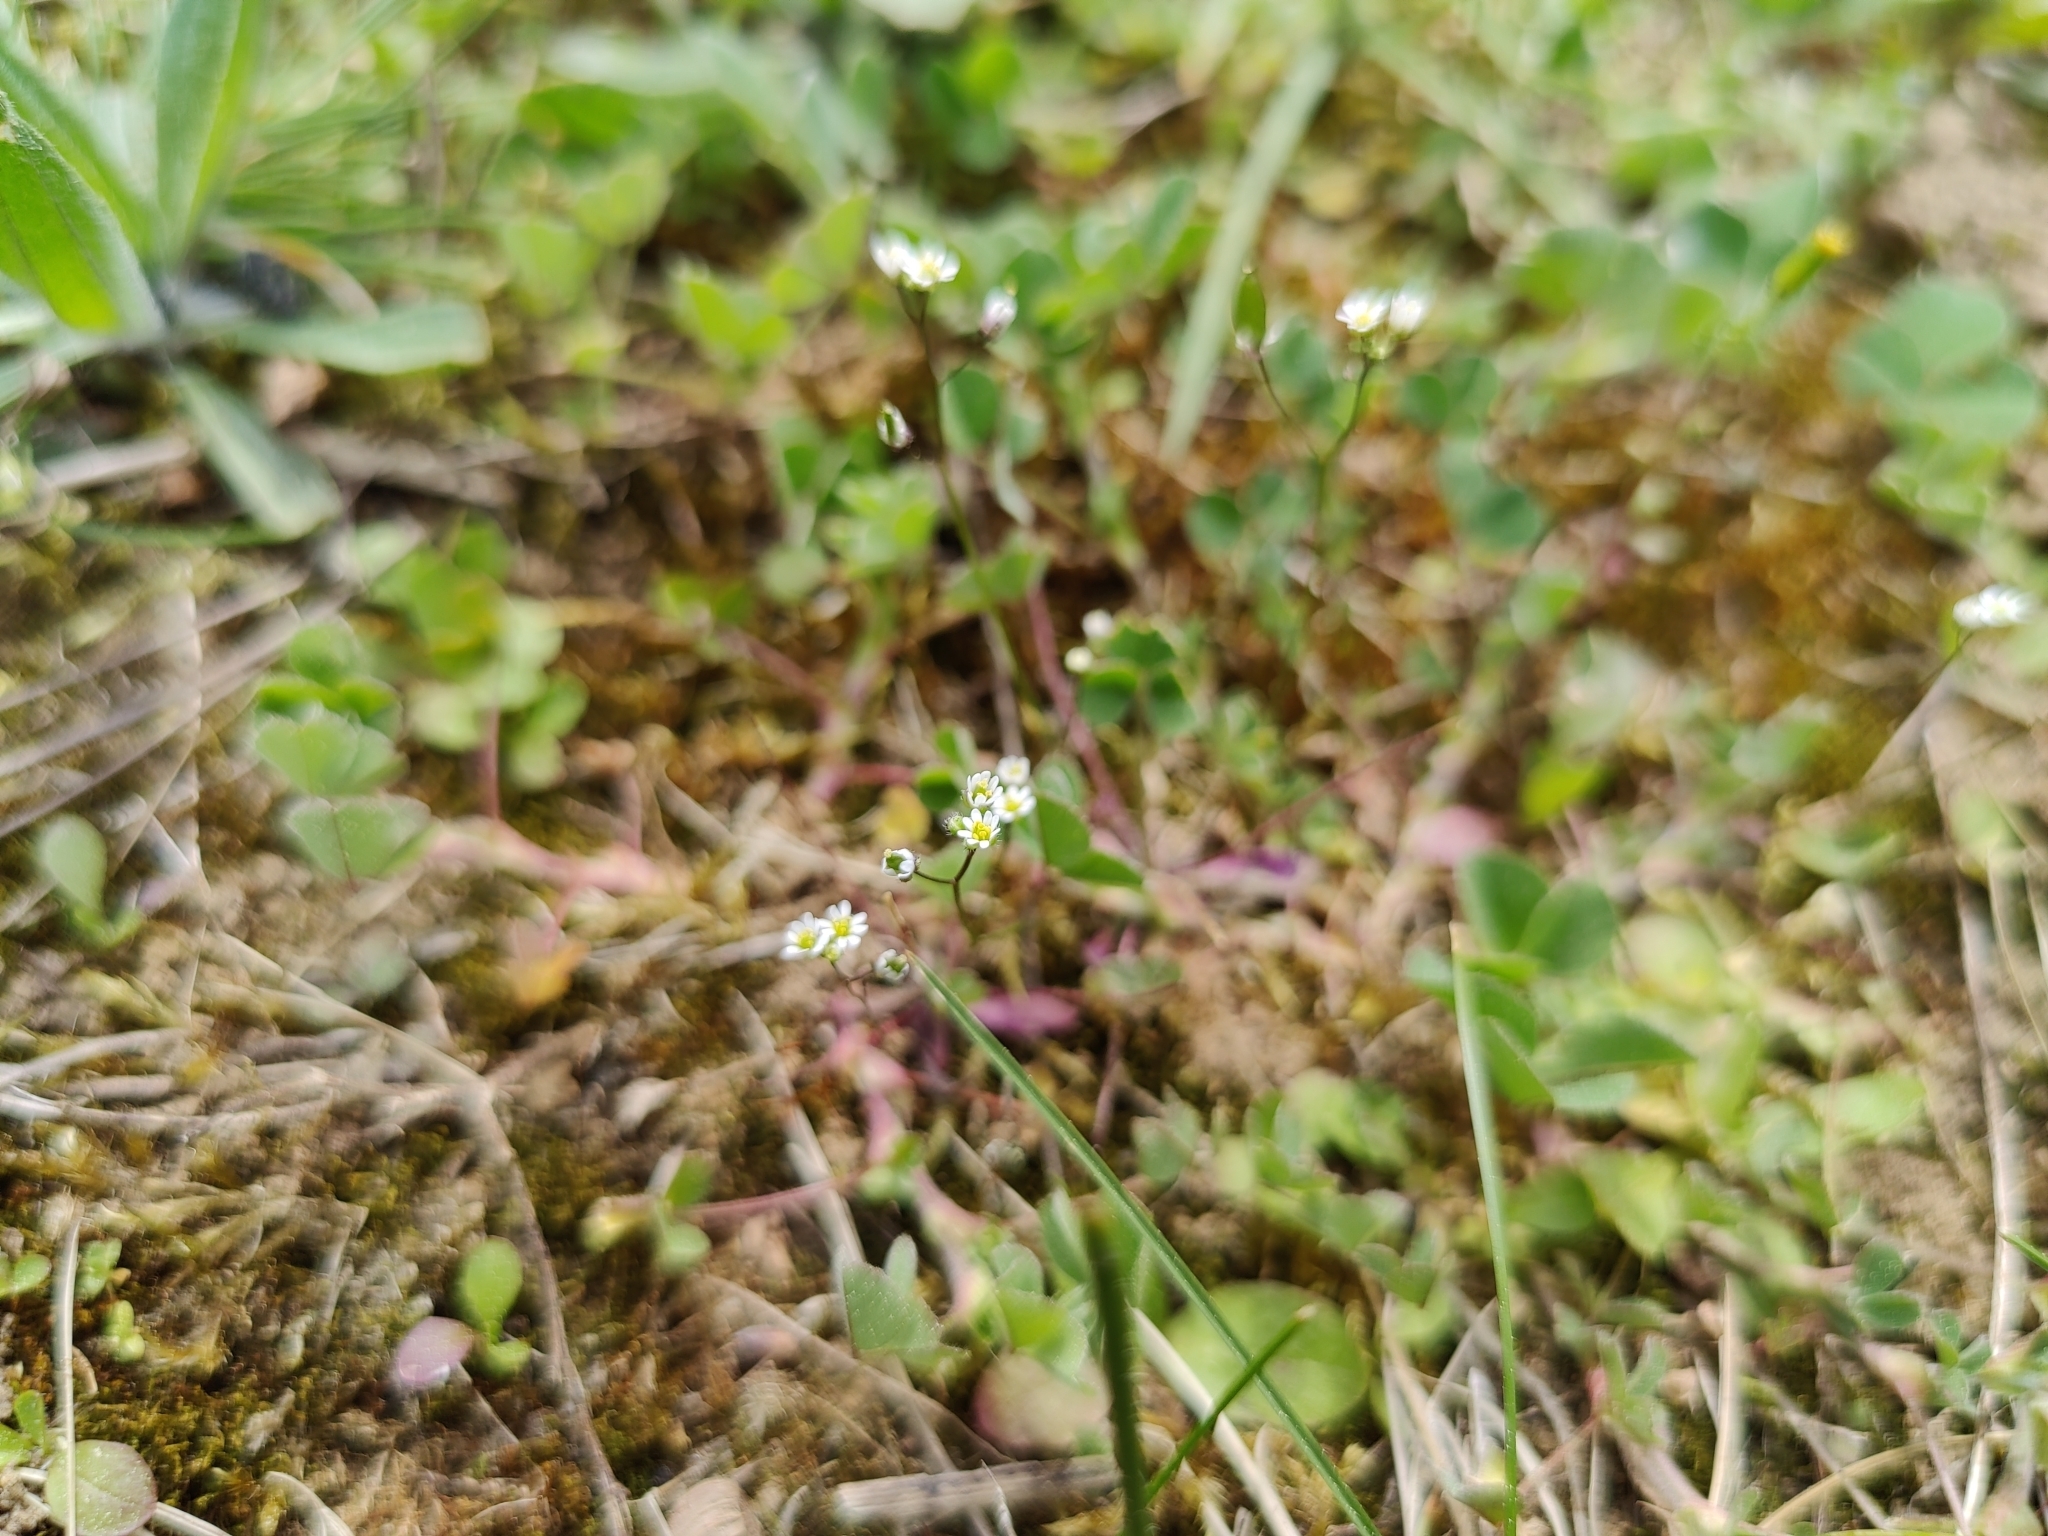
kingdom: Plantae
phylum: Tracheophyta
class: Magnoliopsida
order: Brassicales
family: Brassicaceae
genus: Draba
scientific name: Draba verna
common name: Spring draba
